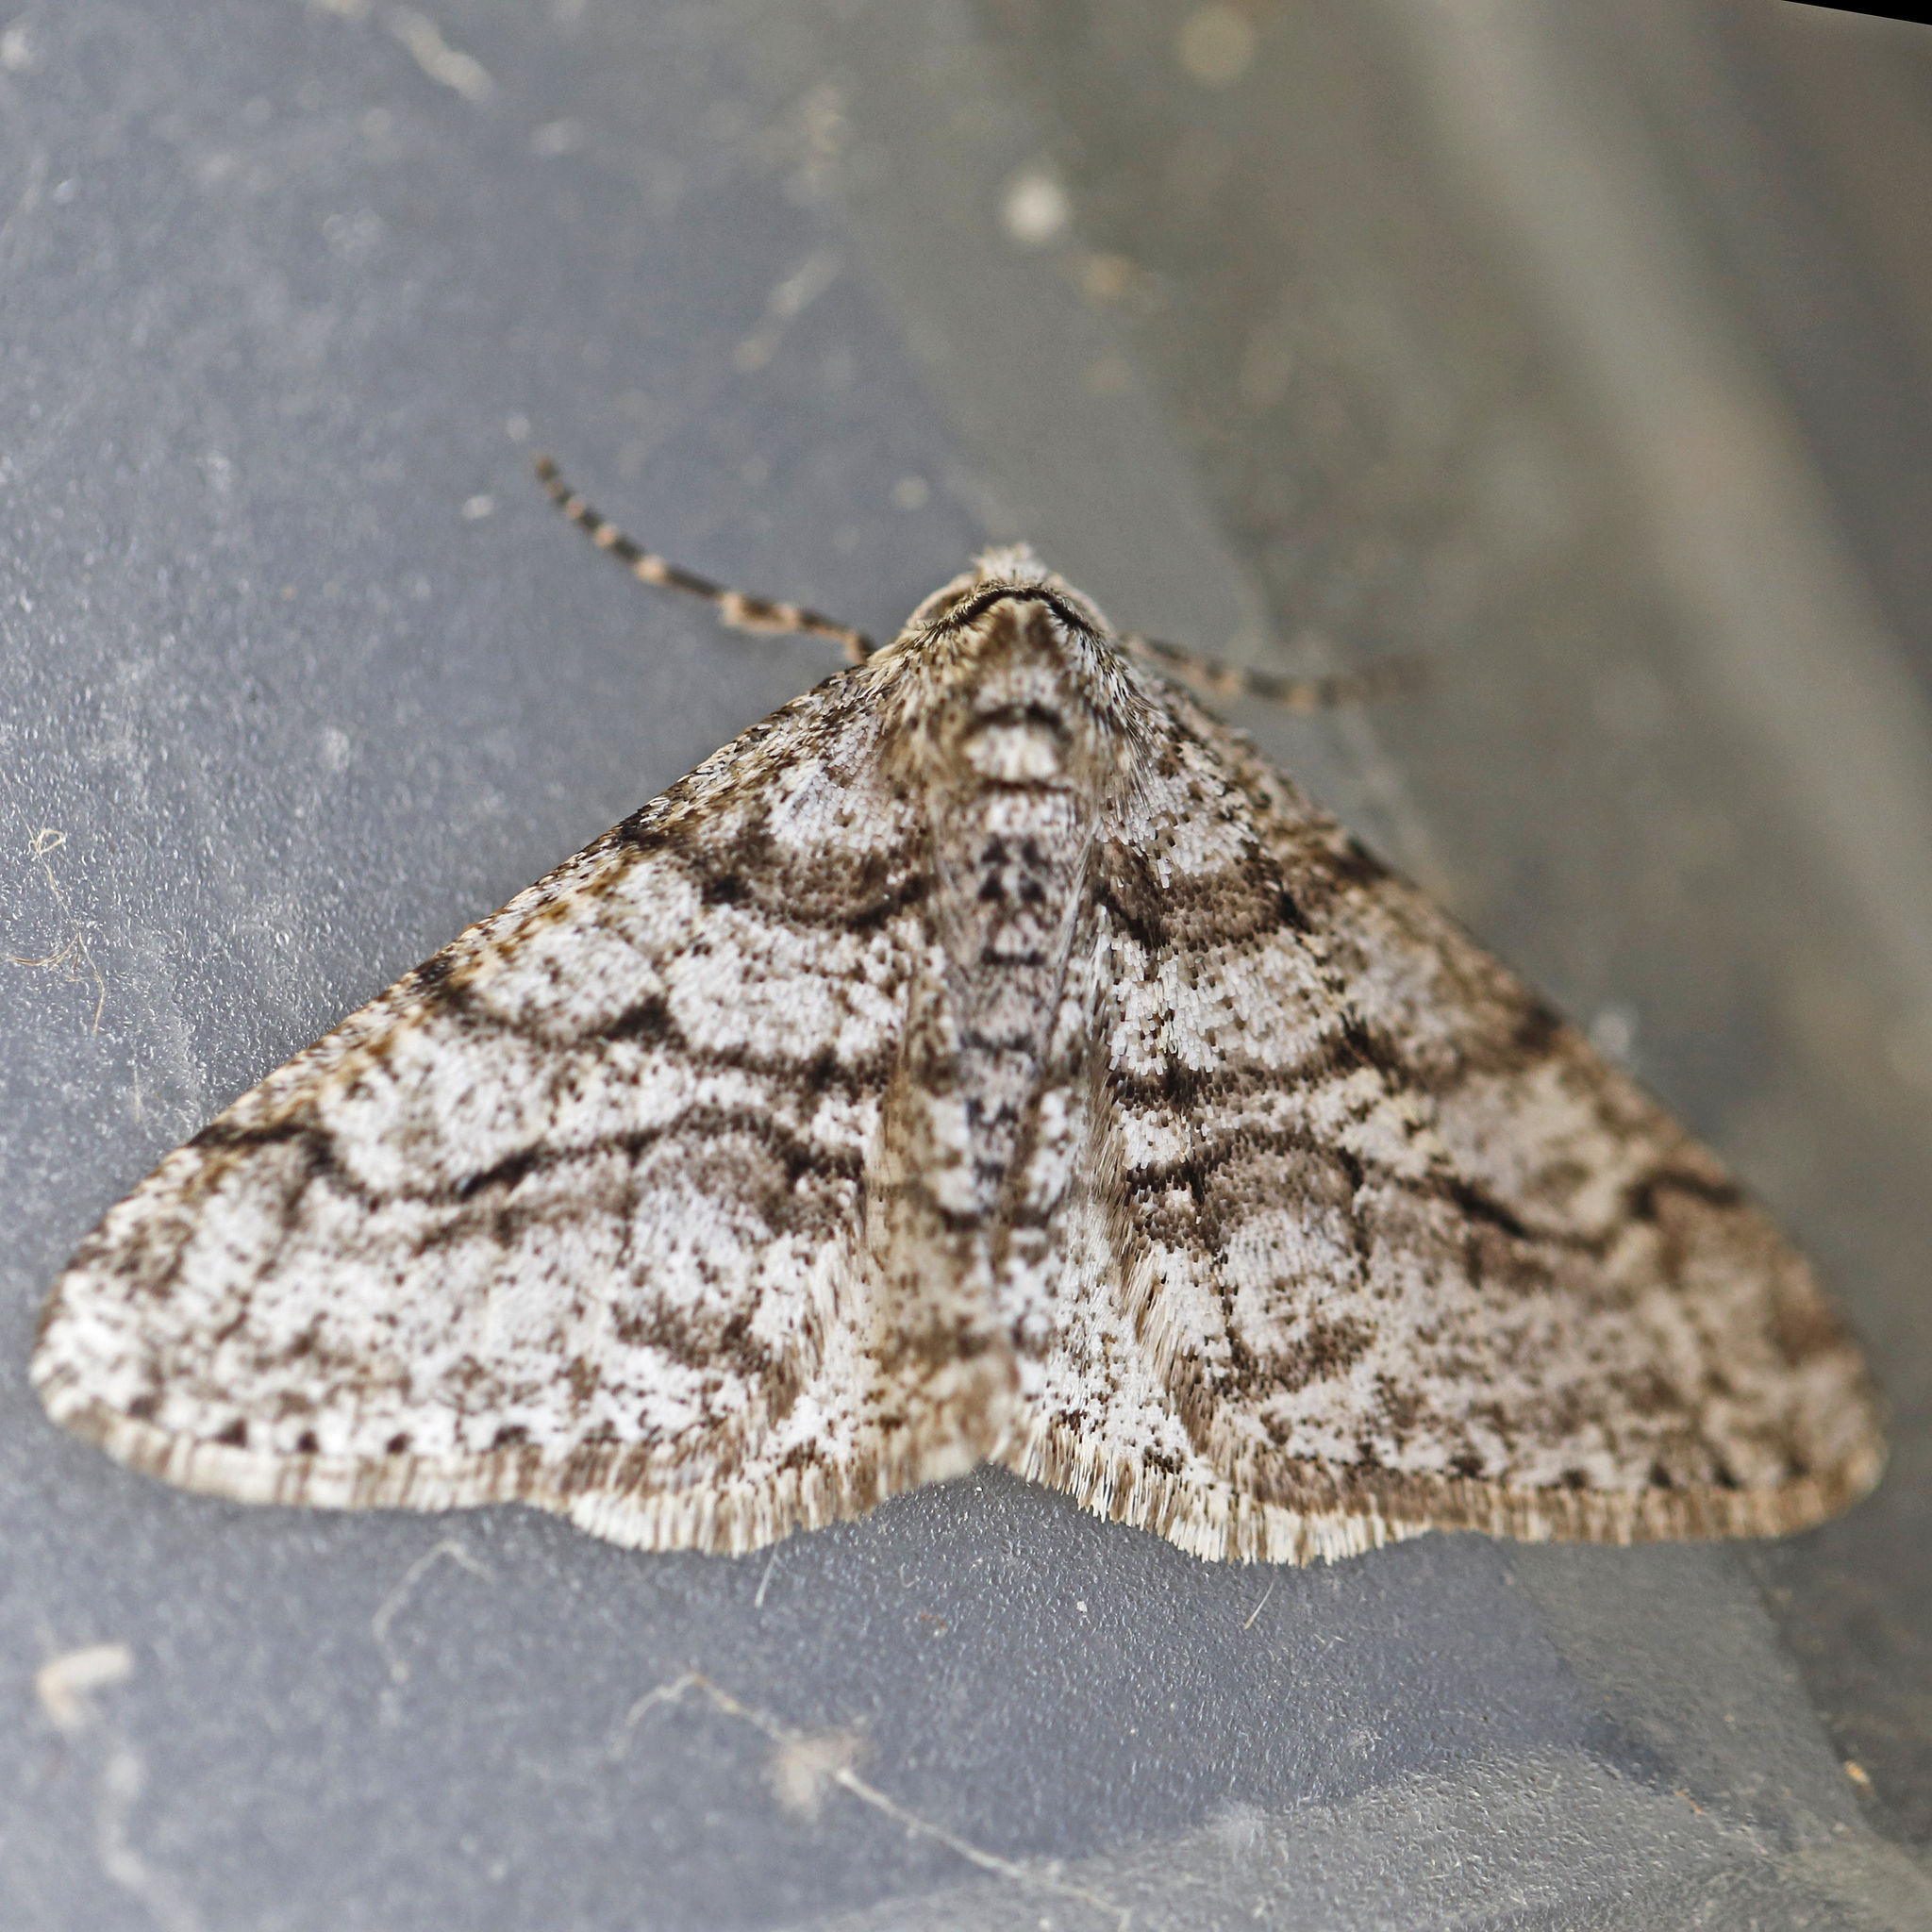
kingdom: Animalia
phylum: Arthropoda
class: Insecta
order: Lepidoptera
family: Geometridae
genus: Phigalia
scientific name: Phigalia titea
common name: Spiny looper
